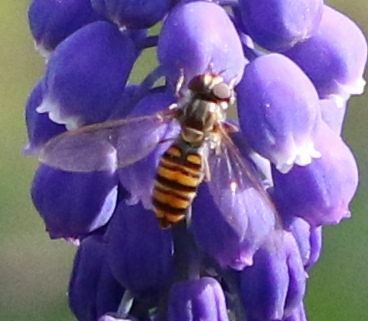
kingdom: Animalia
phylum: Arthropoda
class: Insecta
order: Diptera
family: Syrphidae
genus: Episyrphus
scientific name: Episyrphus balteatus
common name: Marmalade hoverfly
